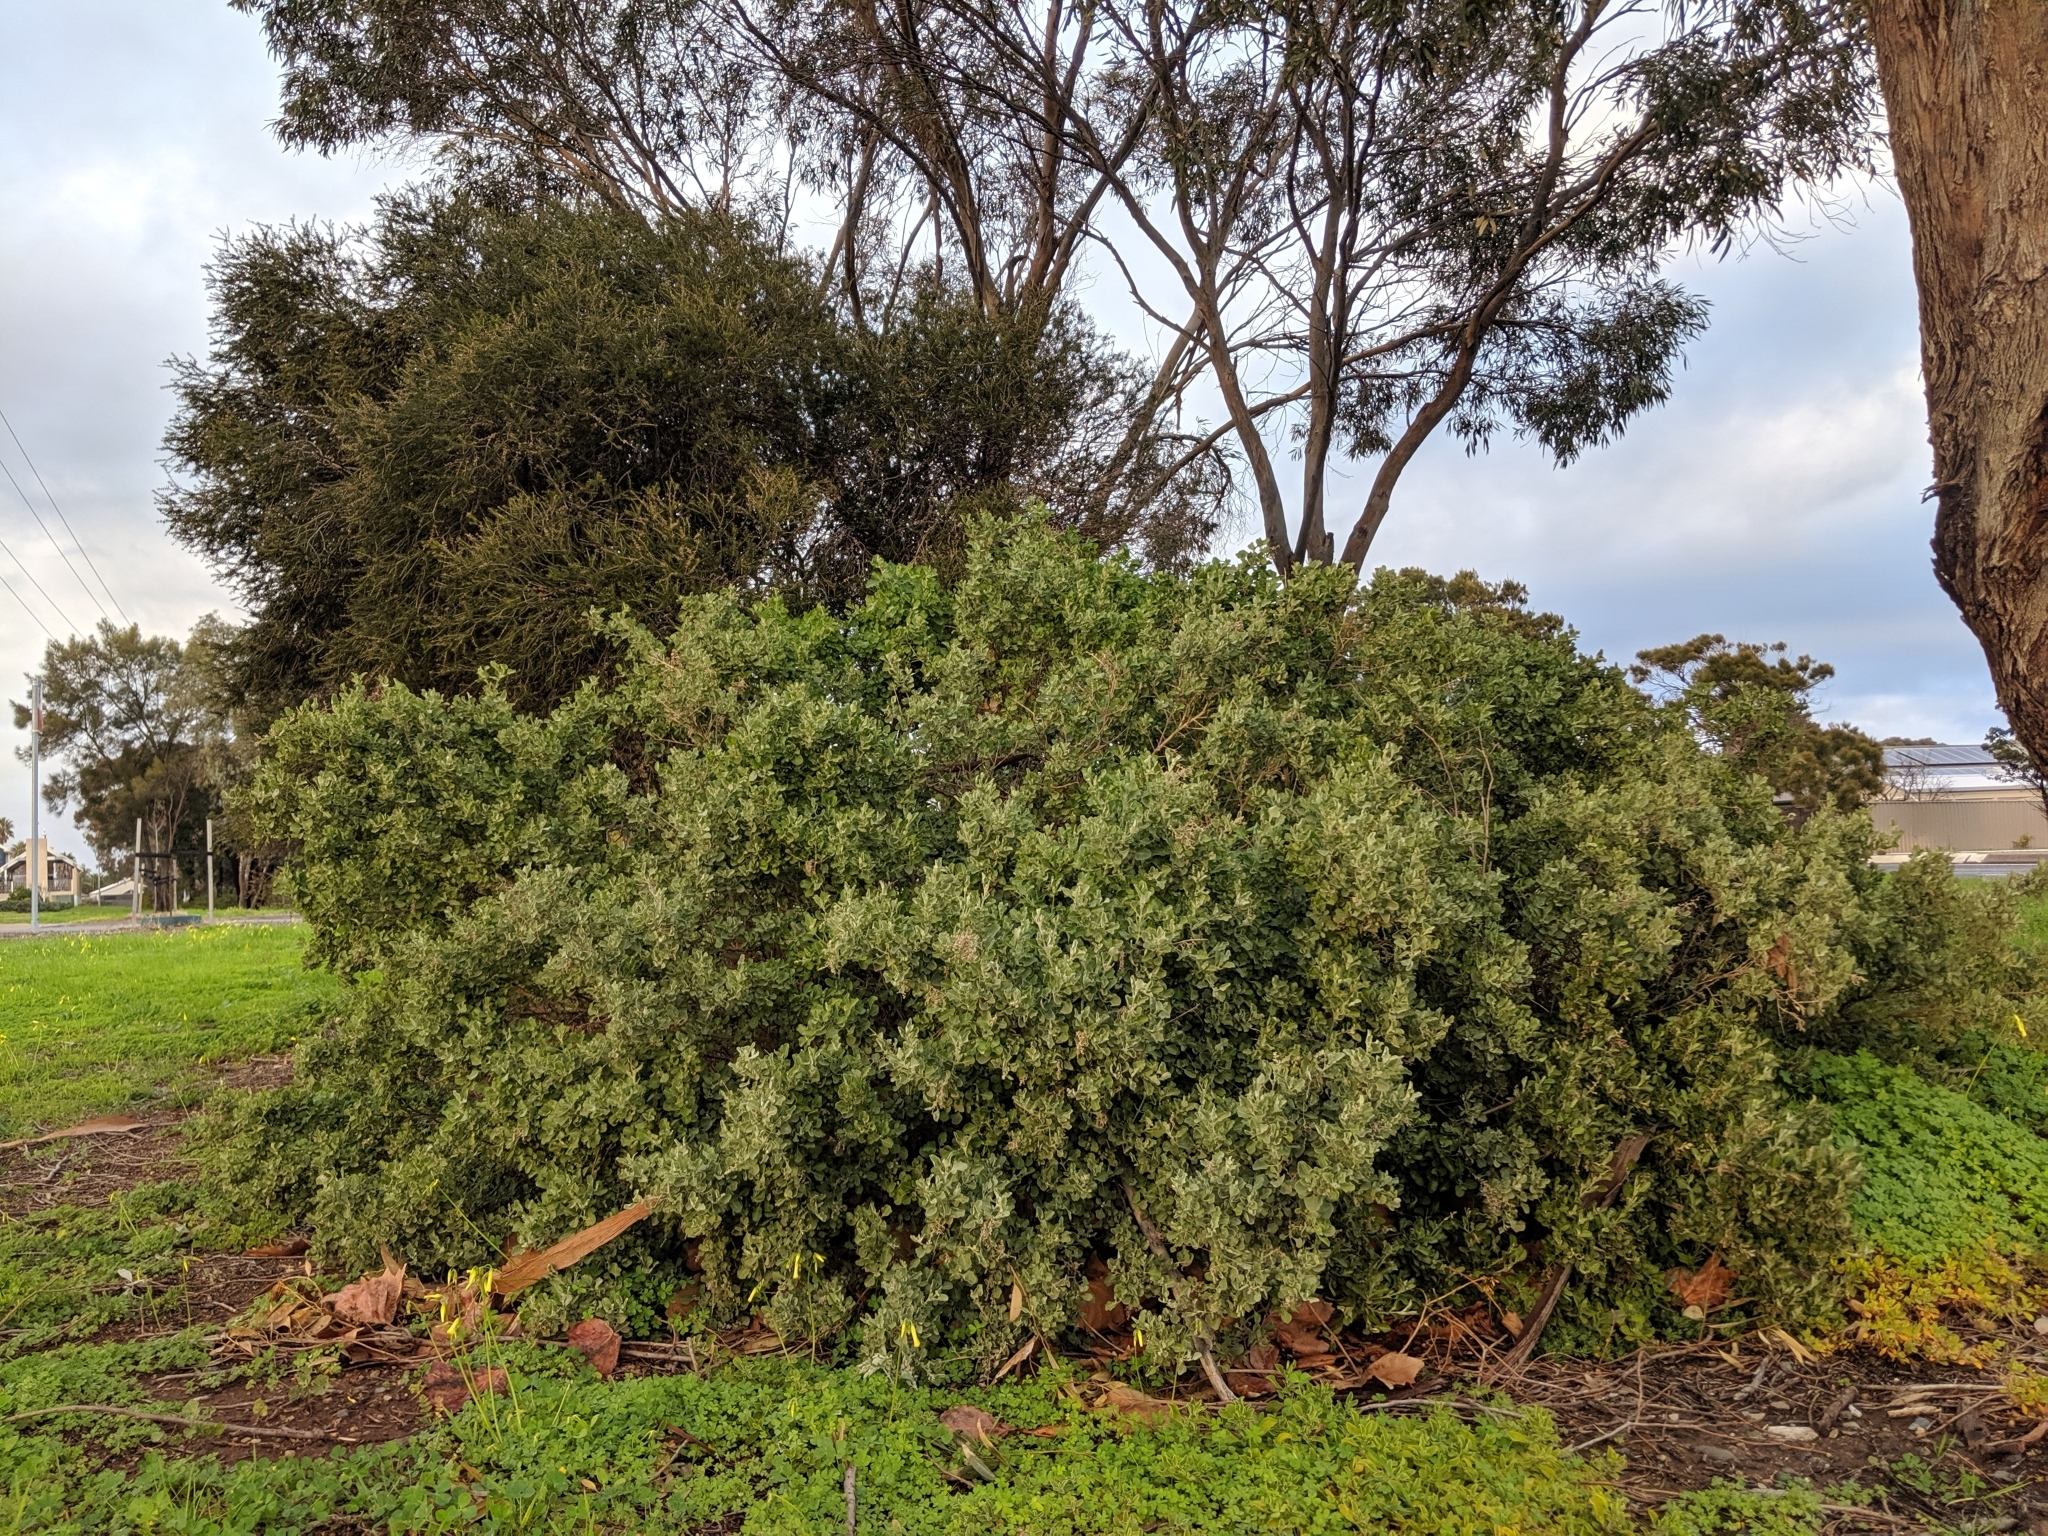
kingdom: Plantae
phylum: Tracheophyta
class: Magnoliopsida
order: Caryophyllales
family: Amaranthaceae
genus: Chenopodium
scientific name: Chenopodium parabolicum
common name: Old-man-saltbush
